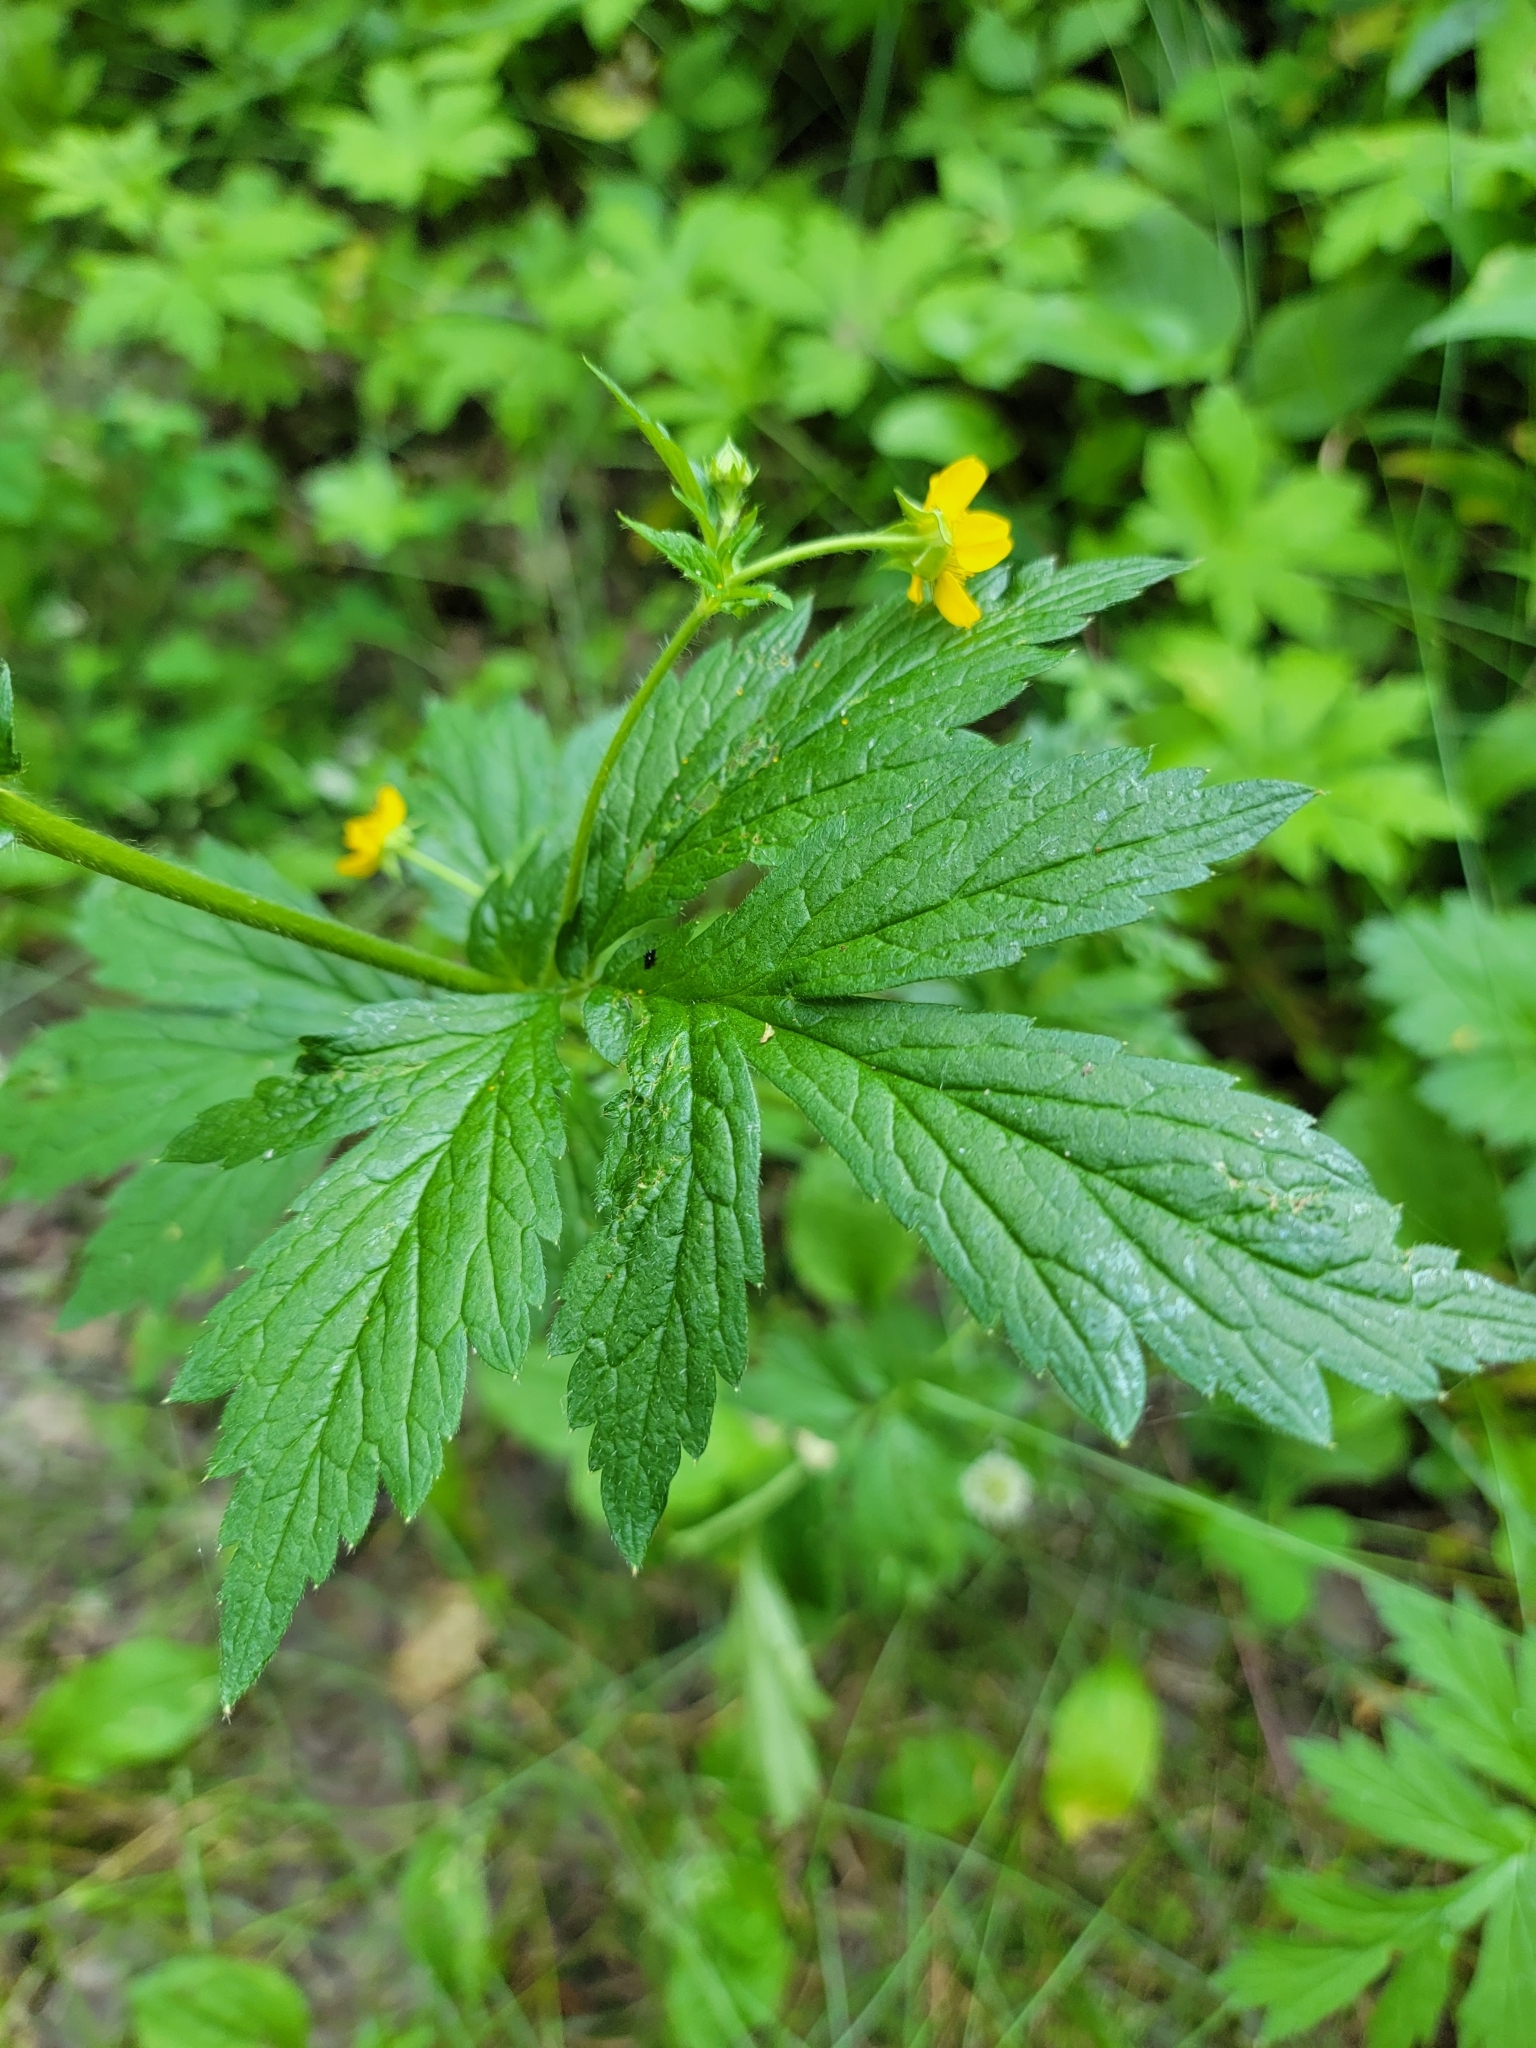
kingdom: Plantae
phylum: Tracheophyta
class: Magnoliopsida
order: Rosales
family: Rosaceae
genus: Geum
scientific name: Geum aleppicum
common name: Yellow avens
